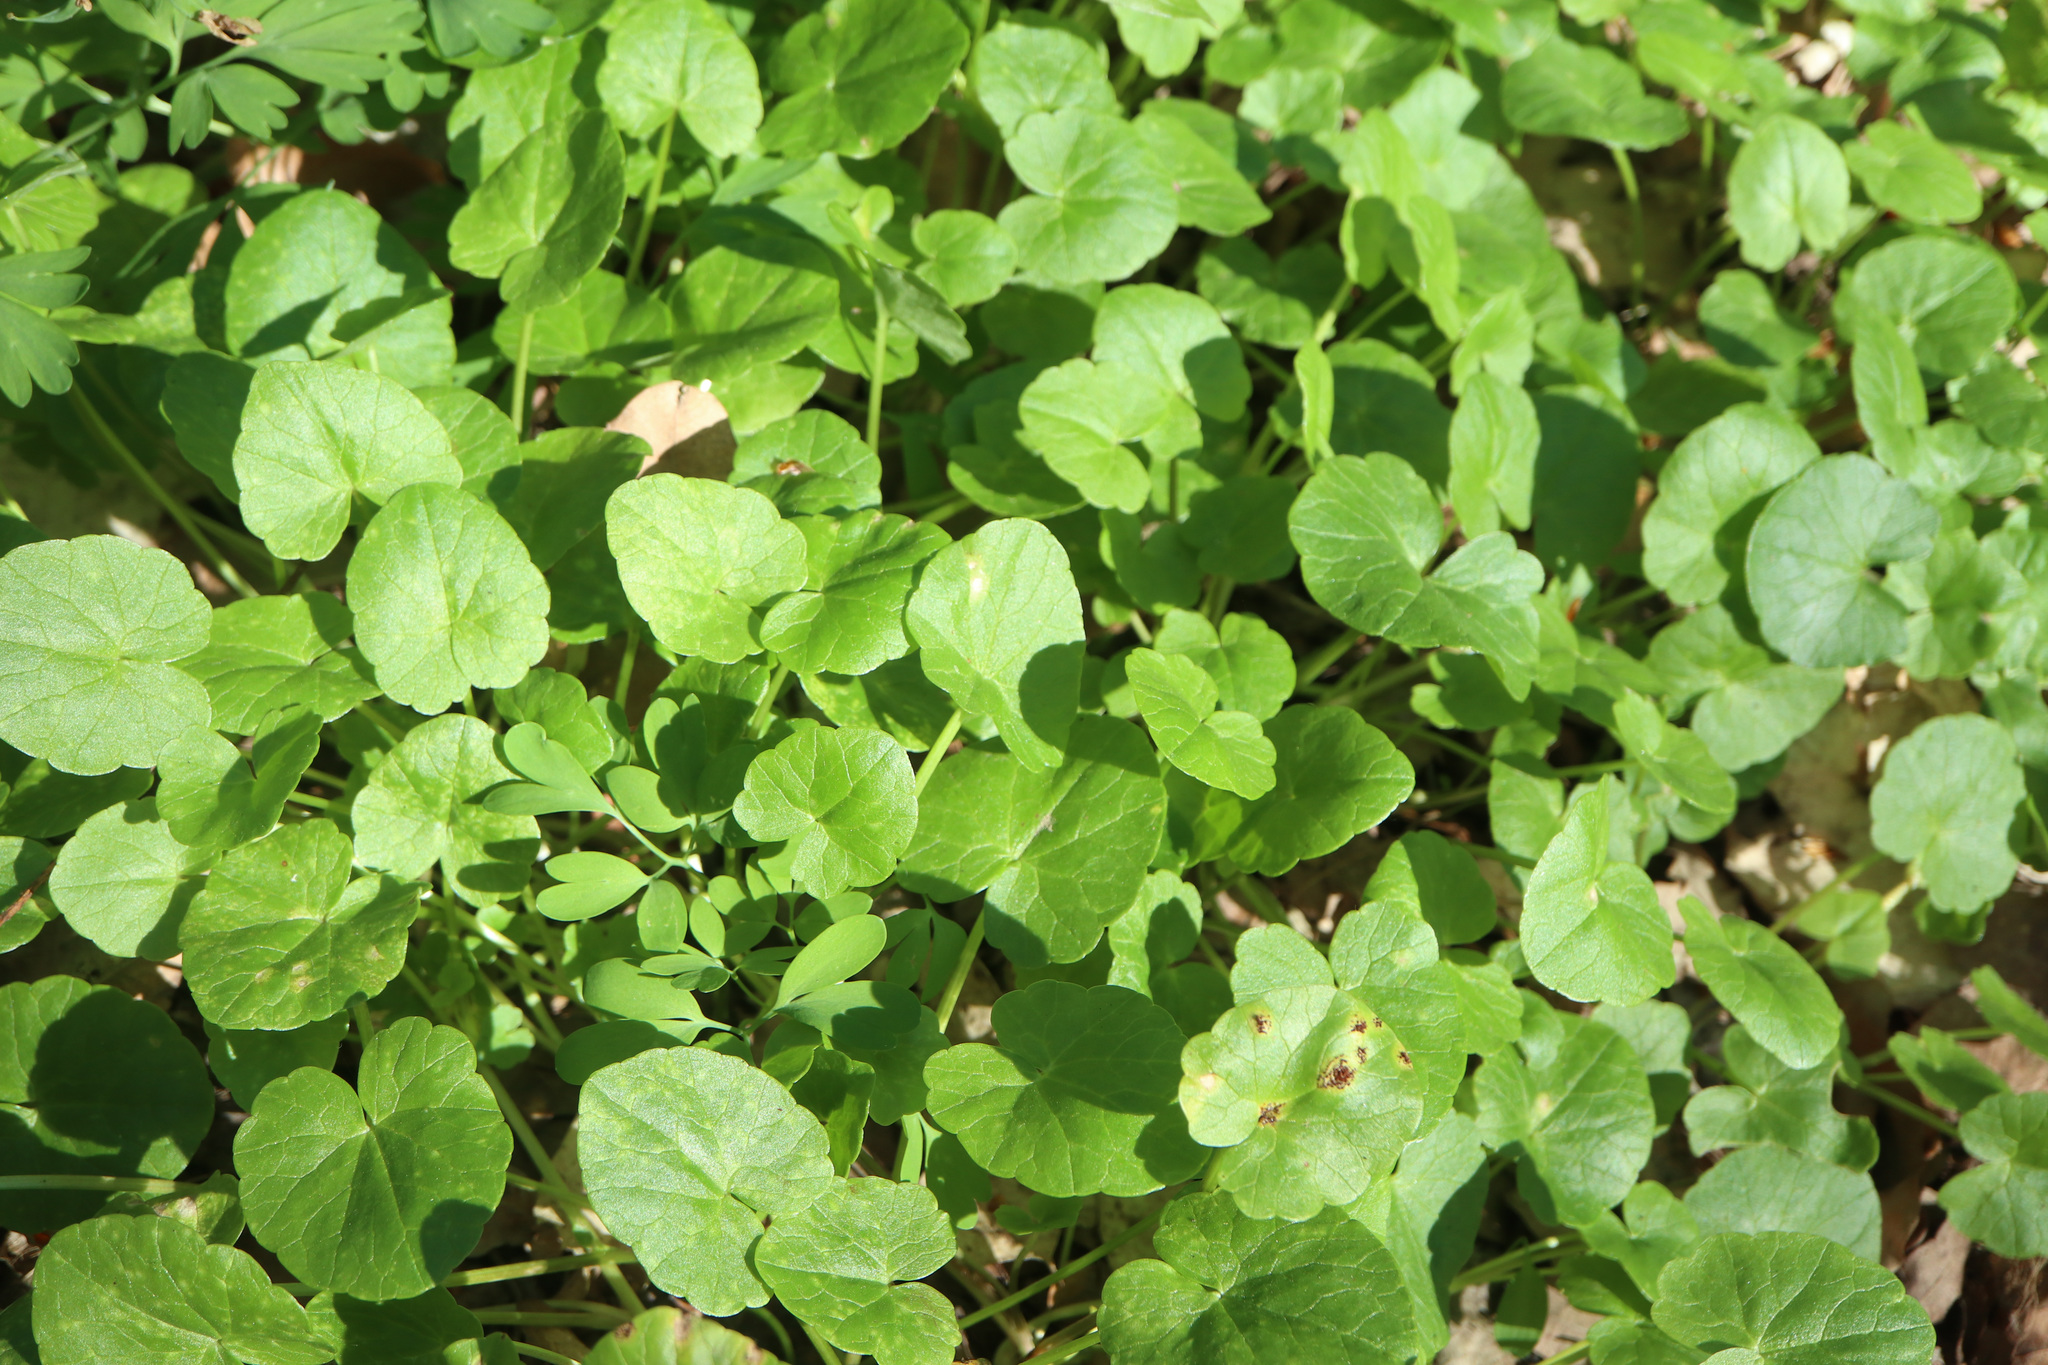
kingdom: Plantae
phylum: Tracheophyta
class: Magnoliopsida
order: Ranunculales
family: Ranunculaceae
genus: Ficaria
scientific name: Ficaria verna
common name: Lesser celandine
